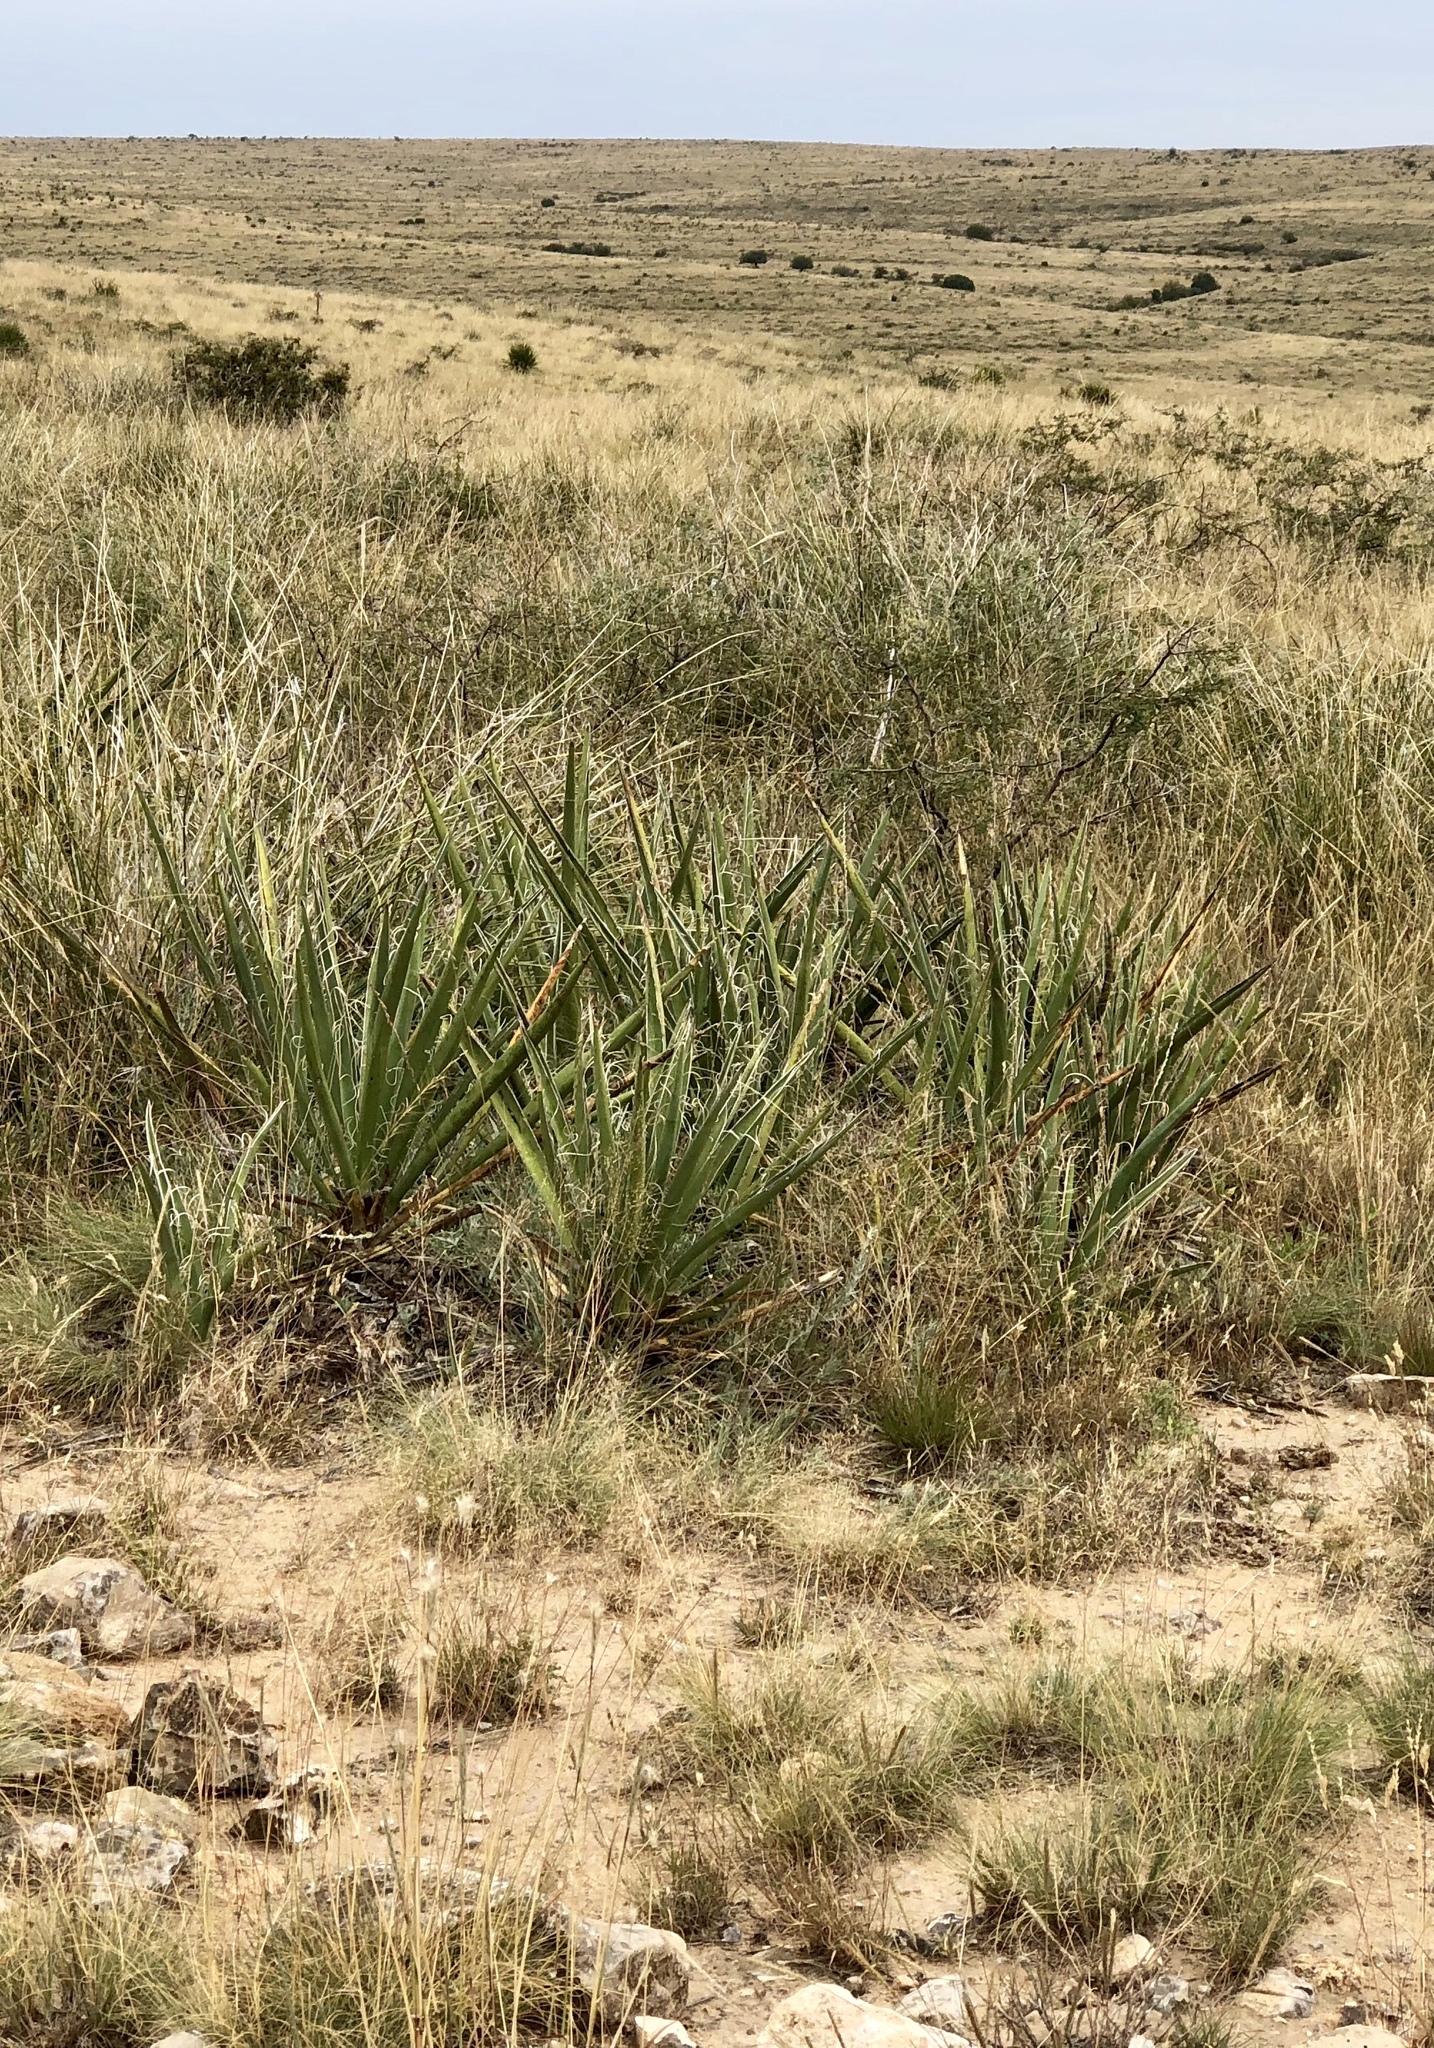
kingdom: Plantae
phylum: Tracheophyta
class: Liliopsida
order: Asparagales
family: Asparagaceae
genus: Yucca
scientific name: Yucca baccata
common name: Banana yucca
